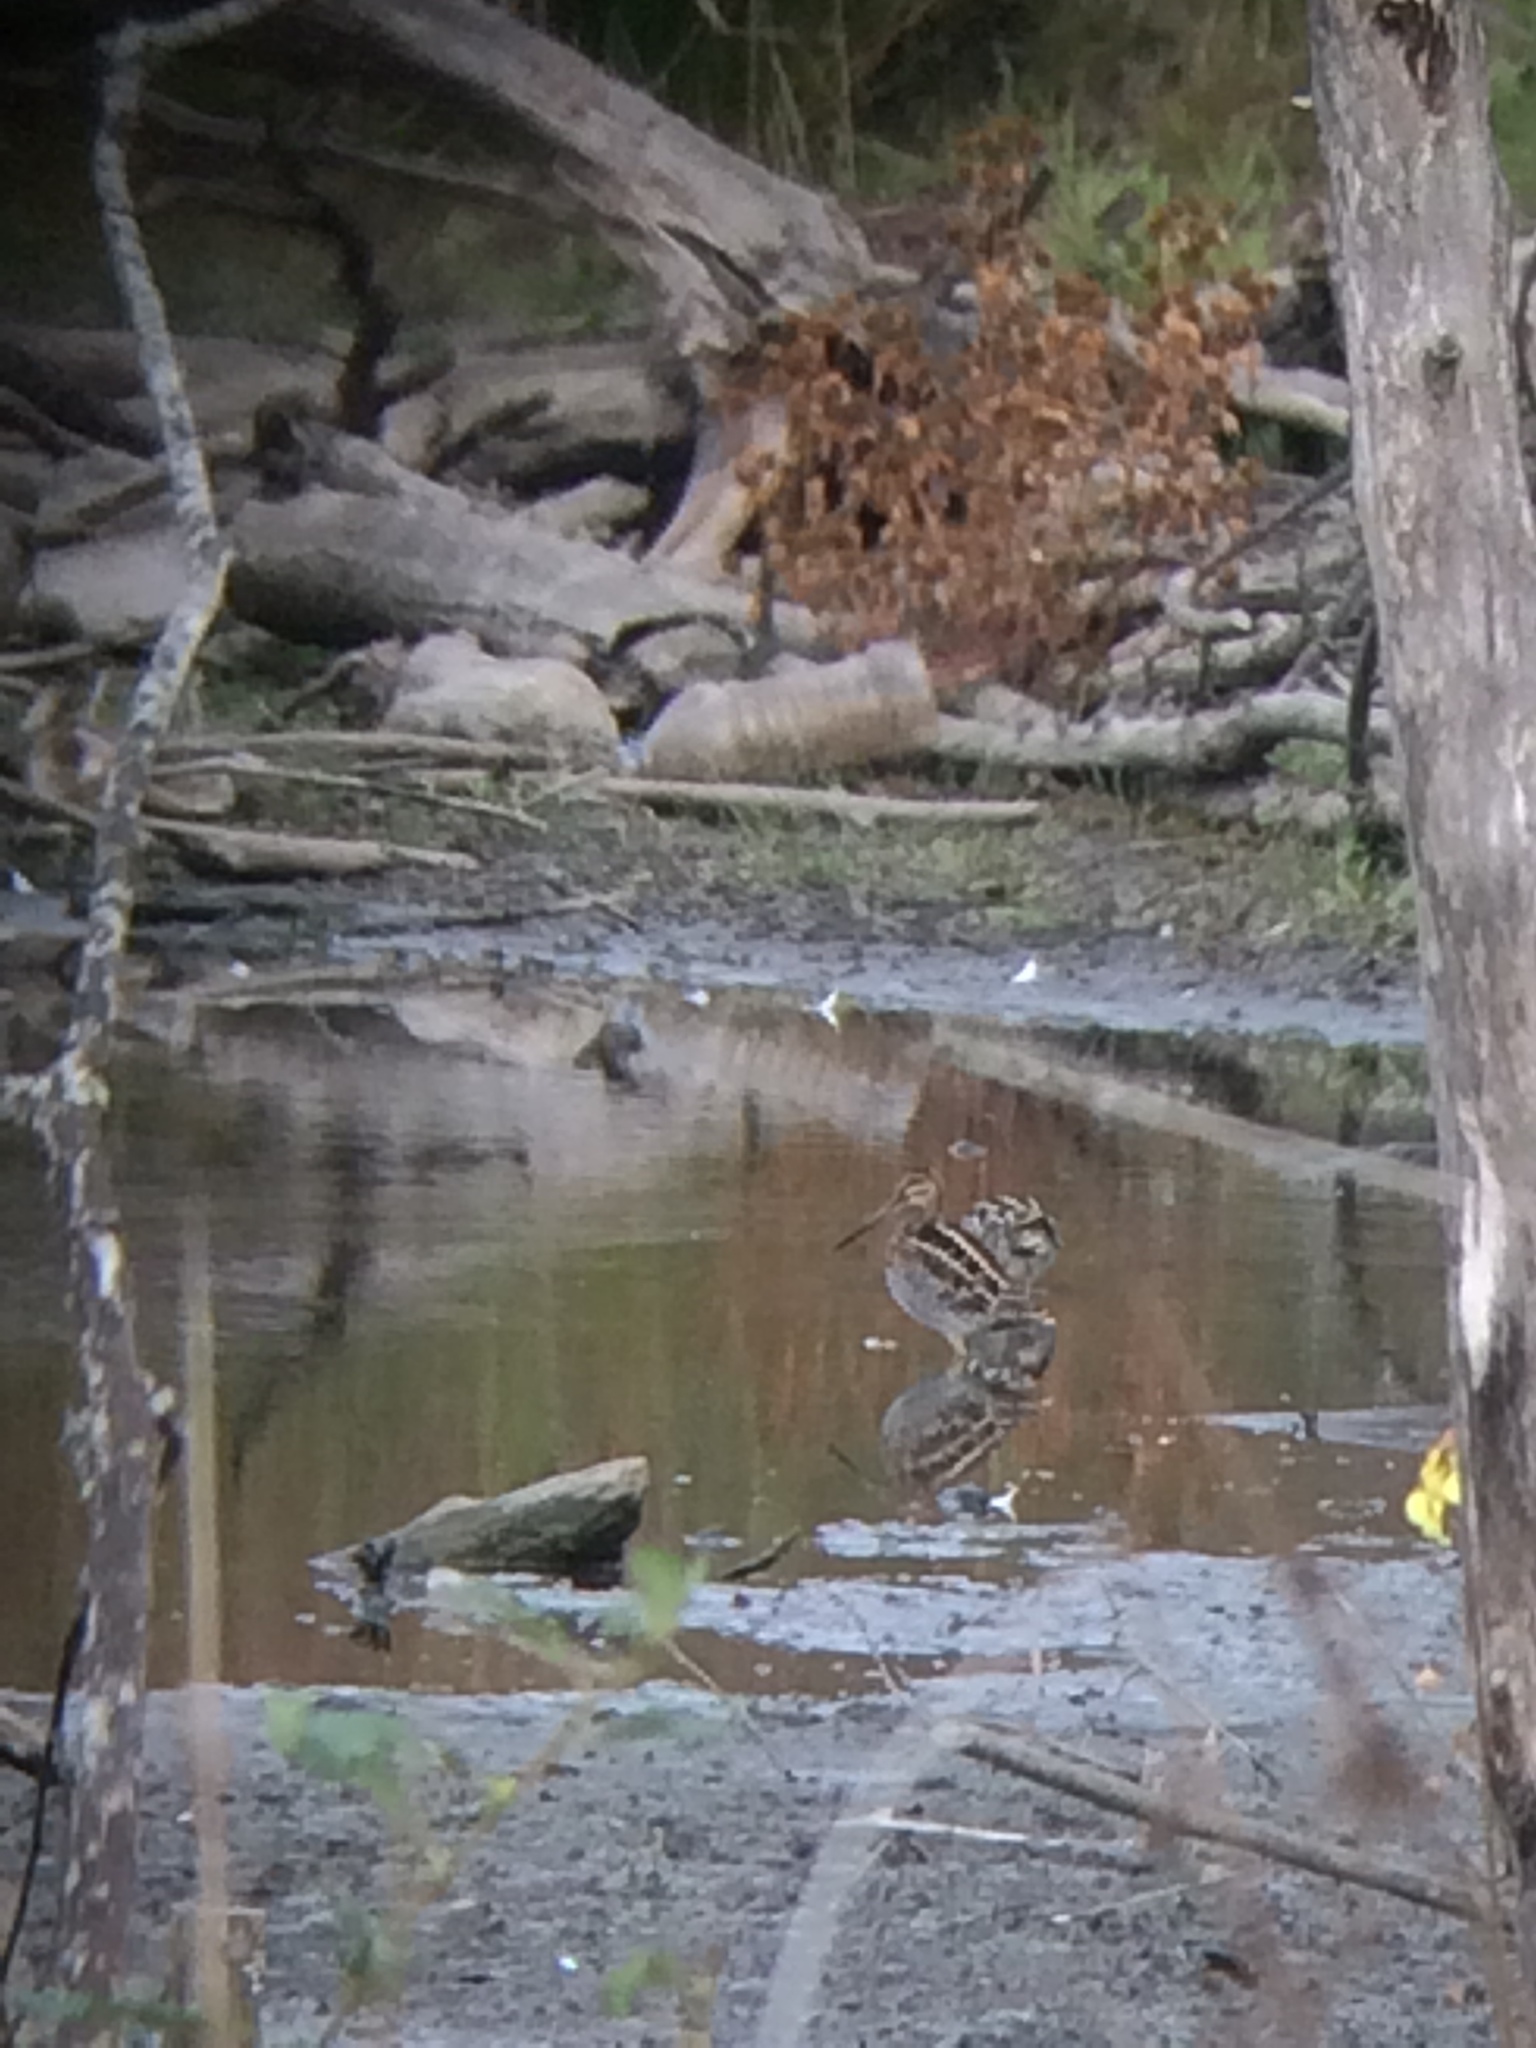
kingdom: Animalia
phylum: Chordata
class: Aves
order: Charadriiformes
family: Scolopacidae
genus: Gallinago
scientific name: Gallinago delicata
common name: Wilson's snipe
